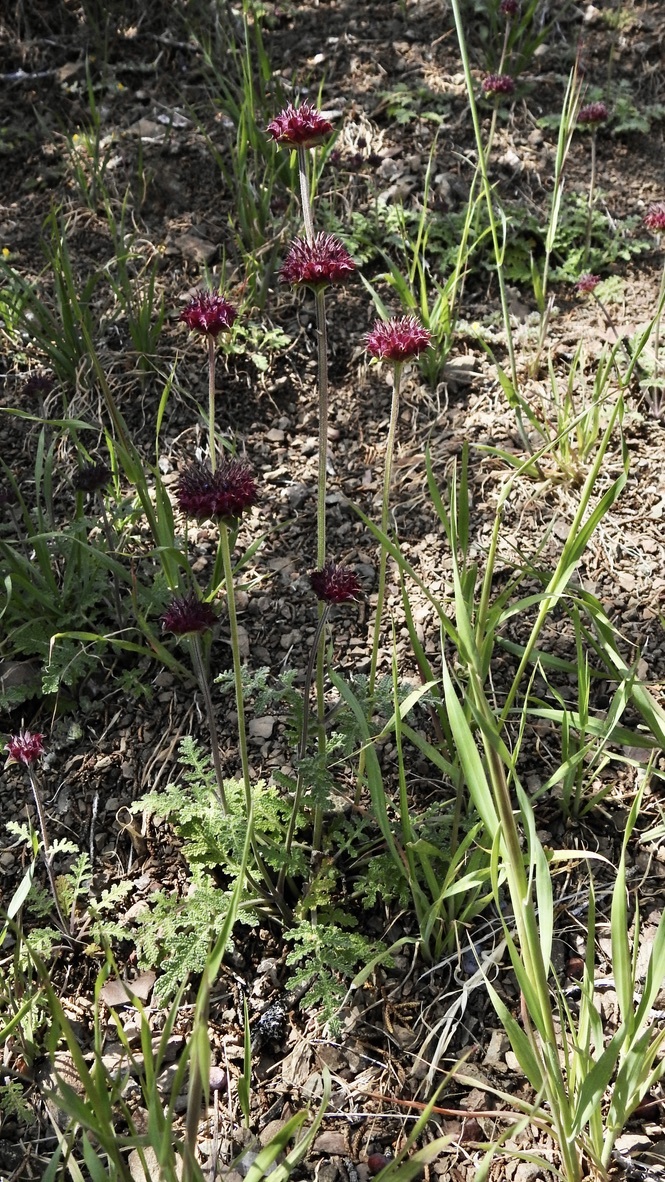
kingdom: Plantae
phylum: Tracheophyta
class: Magnoliopsida
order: Lamiales
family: Lamiaceae
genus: Salvia
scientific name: Salvia columbariae
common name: Chia
